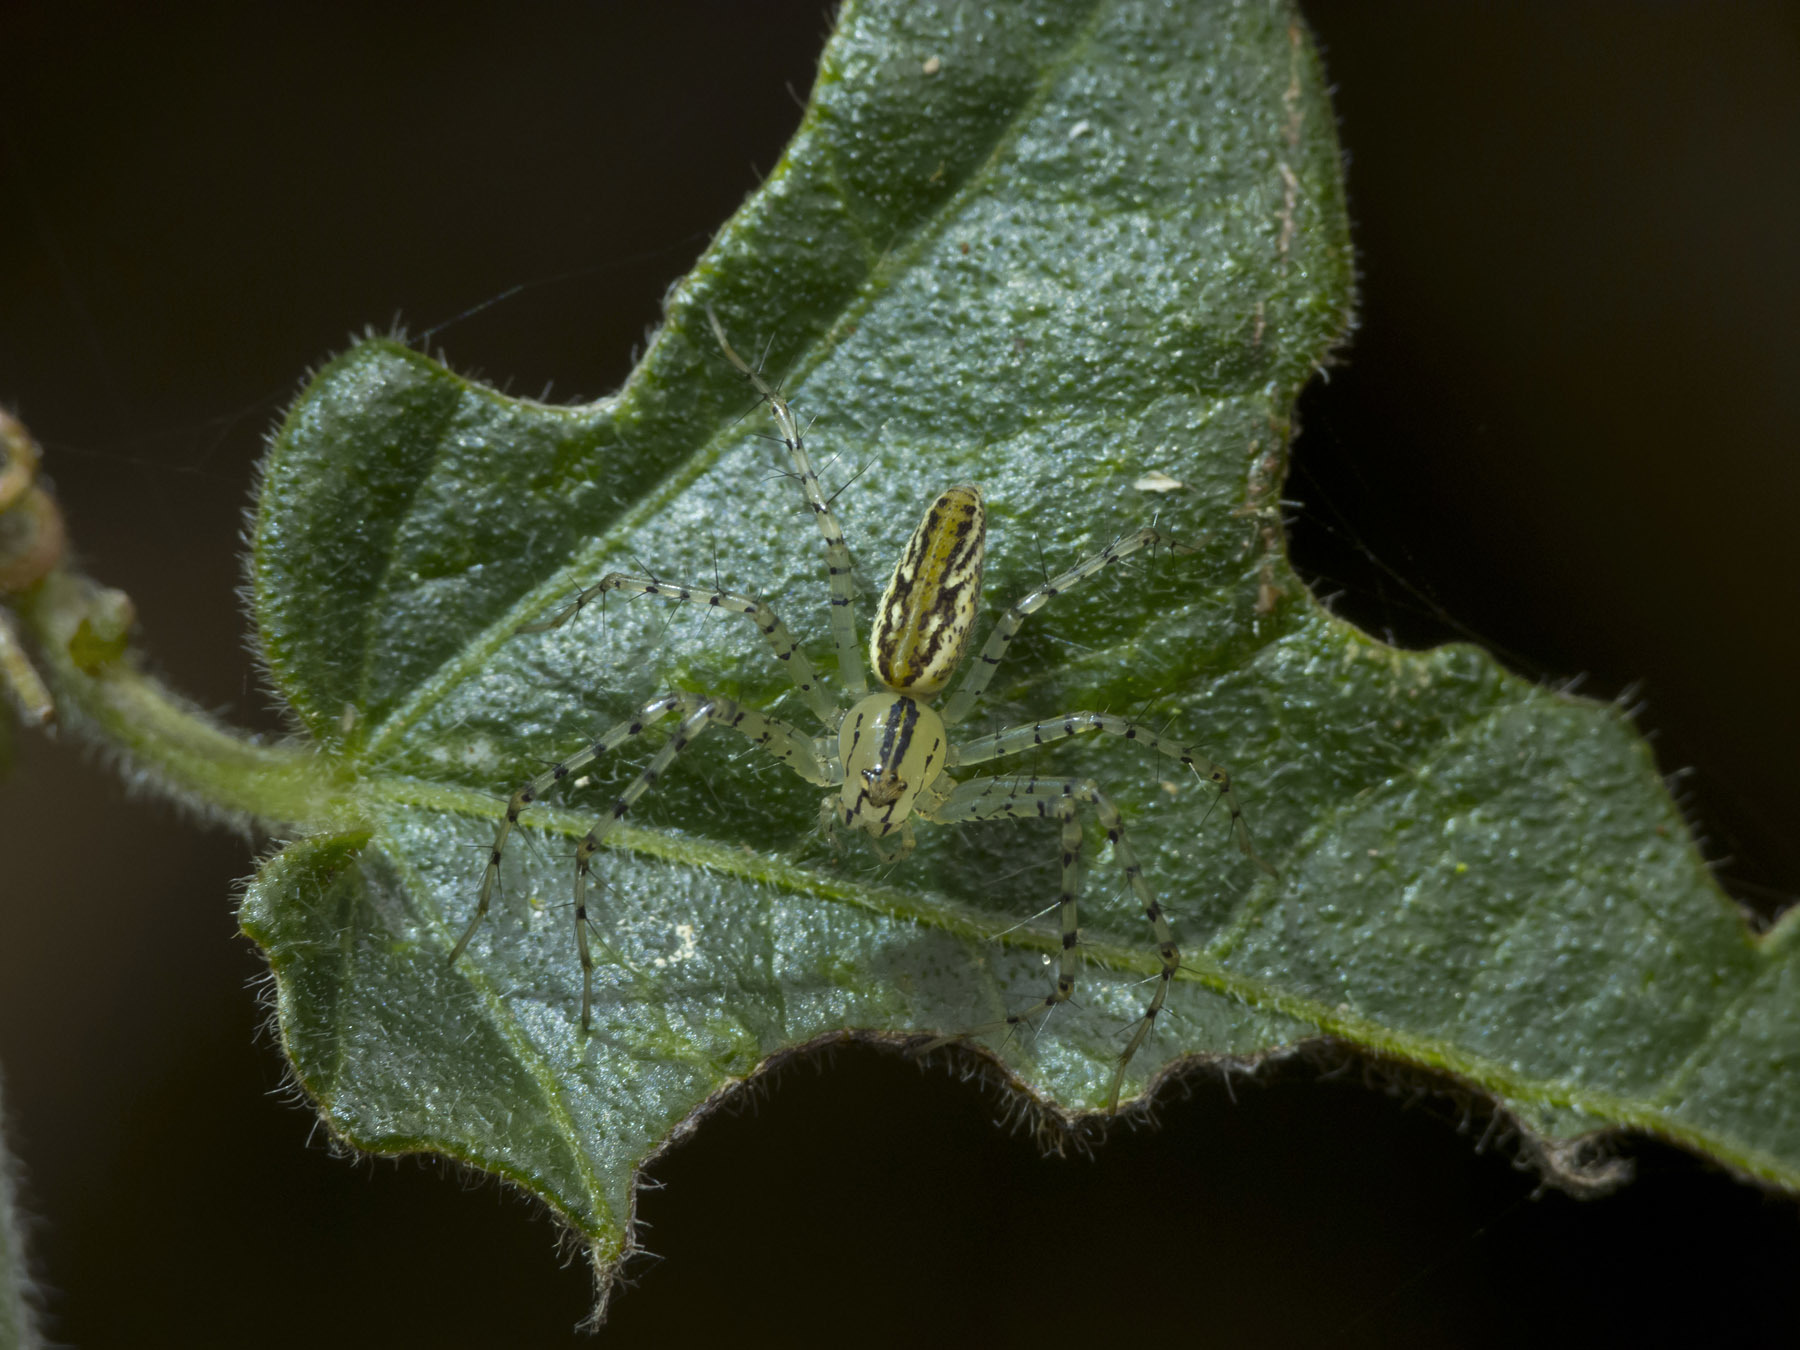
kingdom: Animalia
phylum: Arthropoda
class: Arachnida
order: Araneae
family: Oxyopidae
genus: Peucetia
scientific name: Peucetia rubrolineata
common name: Lynx spiders
